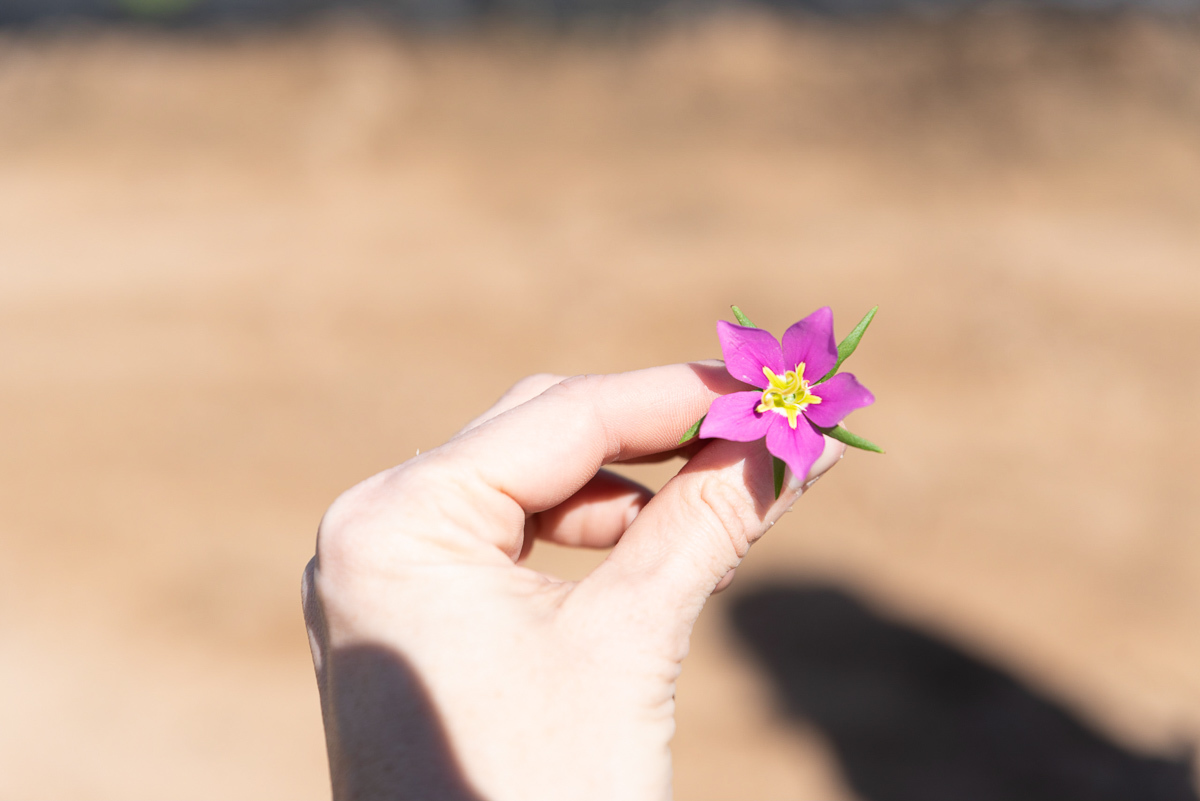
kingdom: Plantae
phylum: Tracheophyta
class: Magnoliopsida
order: Gentianales
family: Gentianaceae
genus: Sabatia
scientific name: Sabatia campestris
